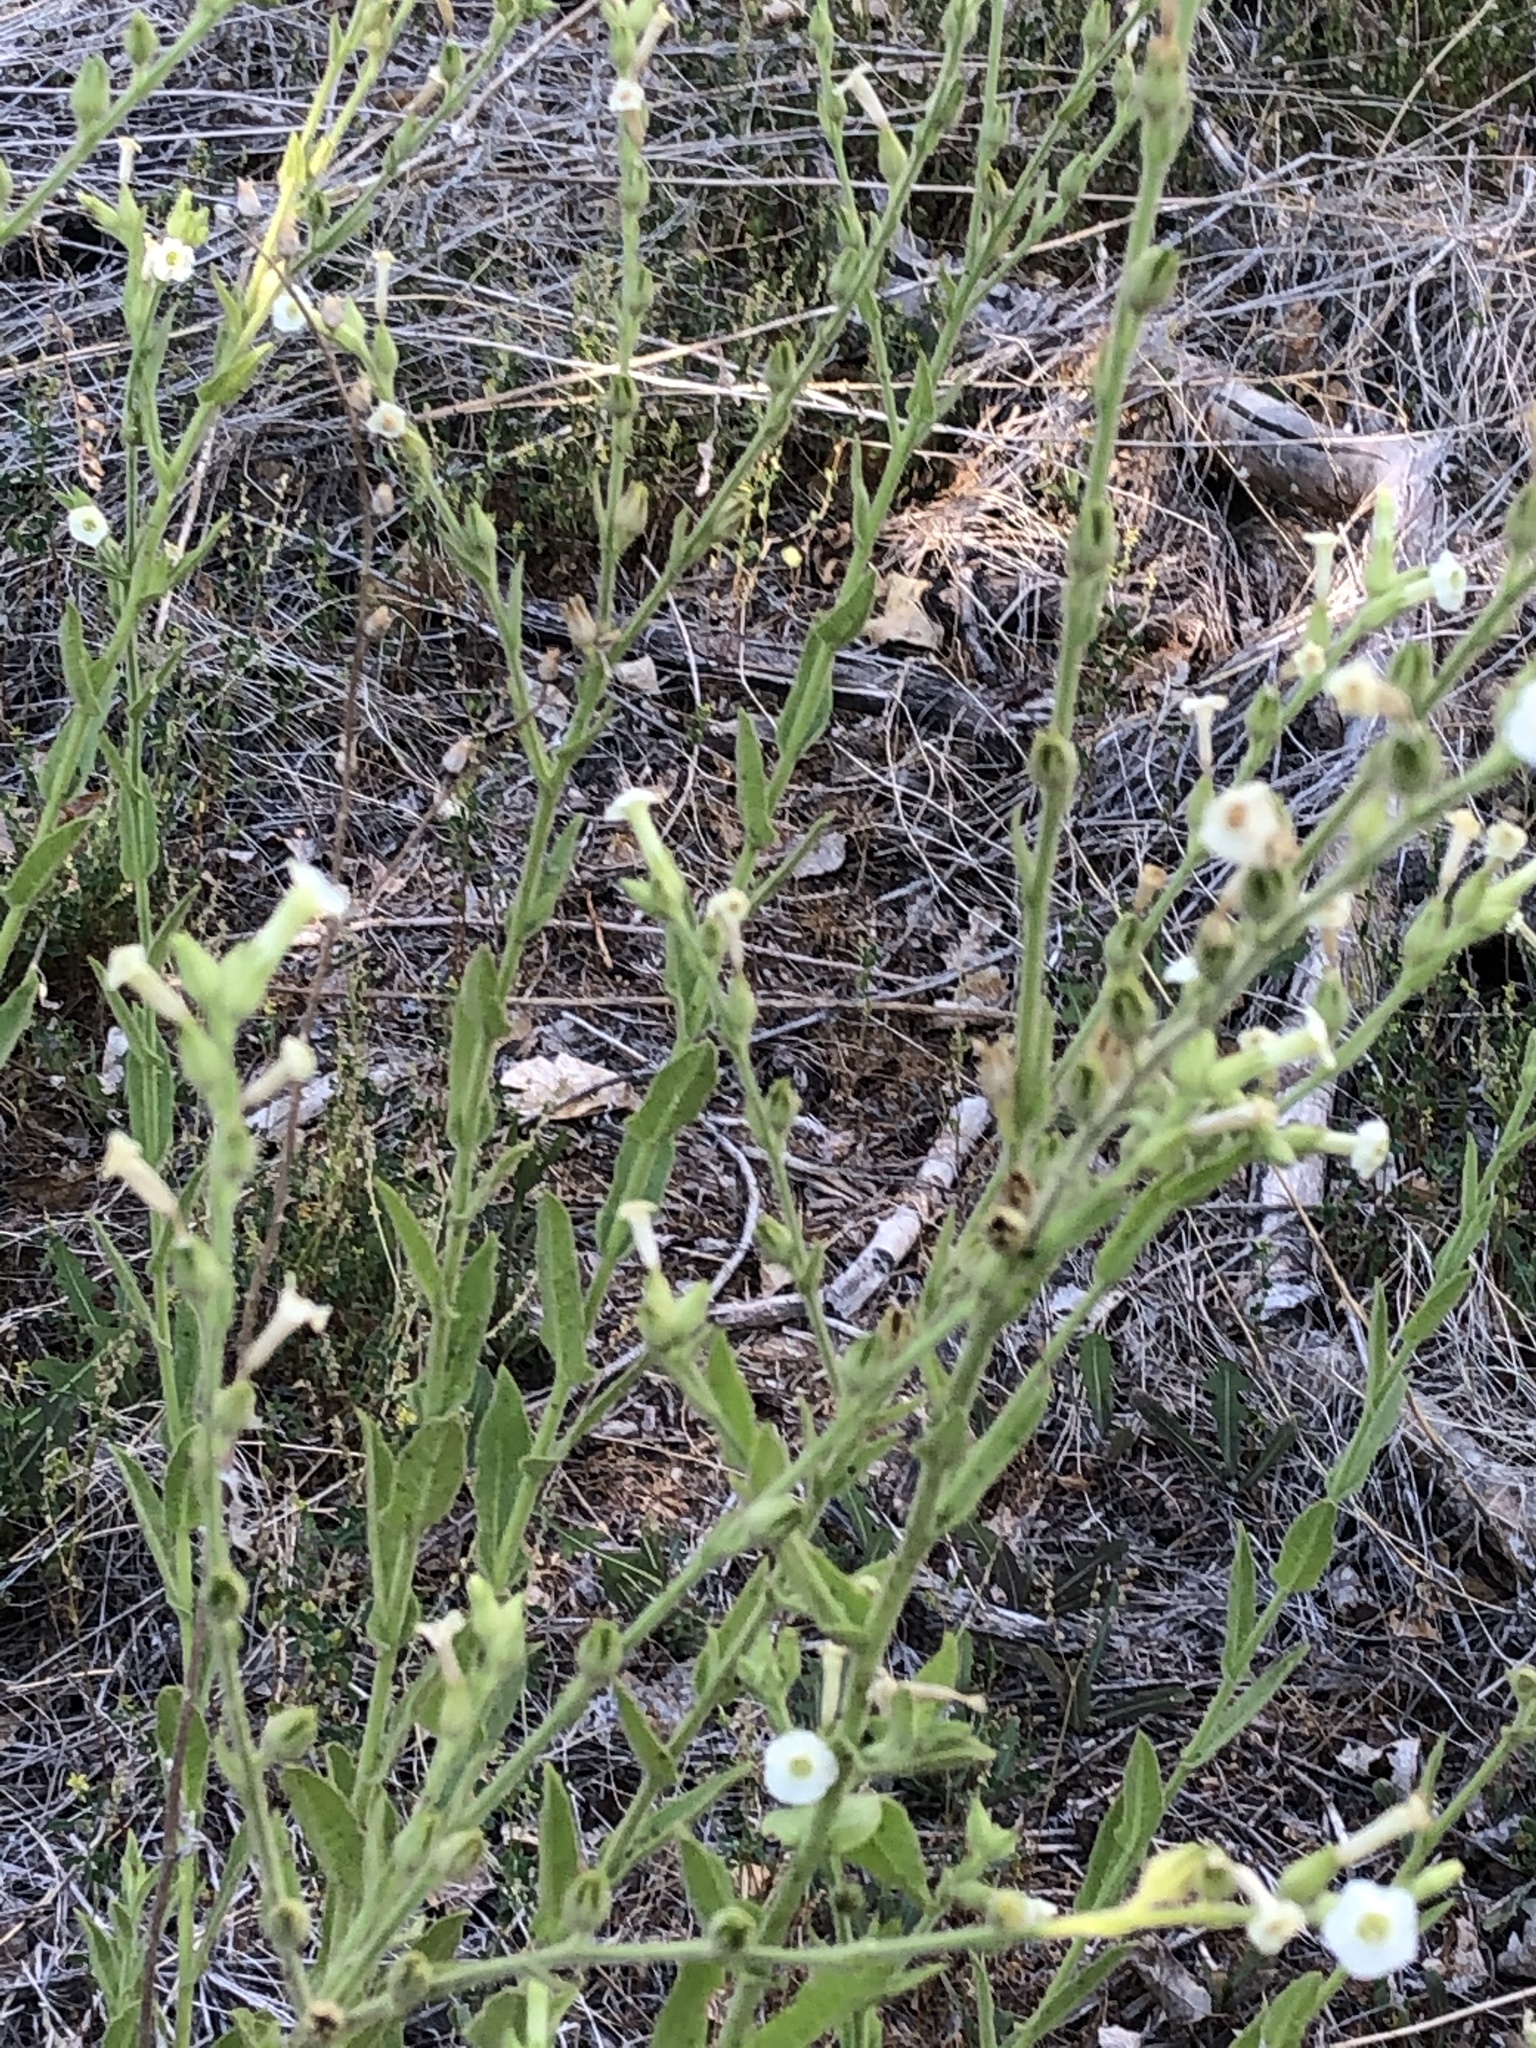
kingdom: Plantae
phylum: Tracheophyta
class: Magnoliopsida
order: Solanales
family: Solanaceae
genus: Nicotiana
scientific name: Nicotiana obtusifolia
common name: Desert tobacco
